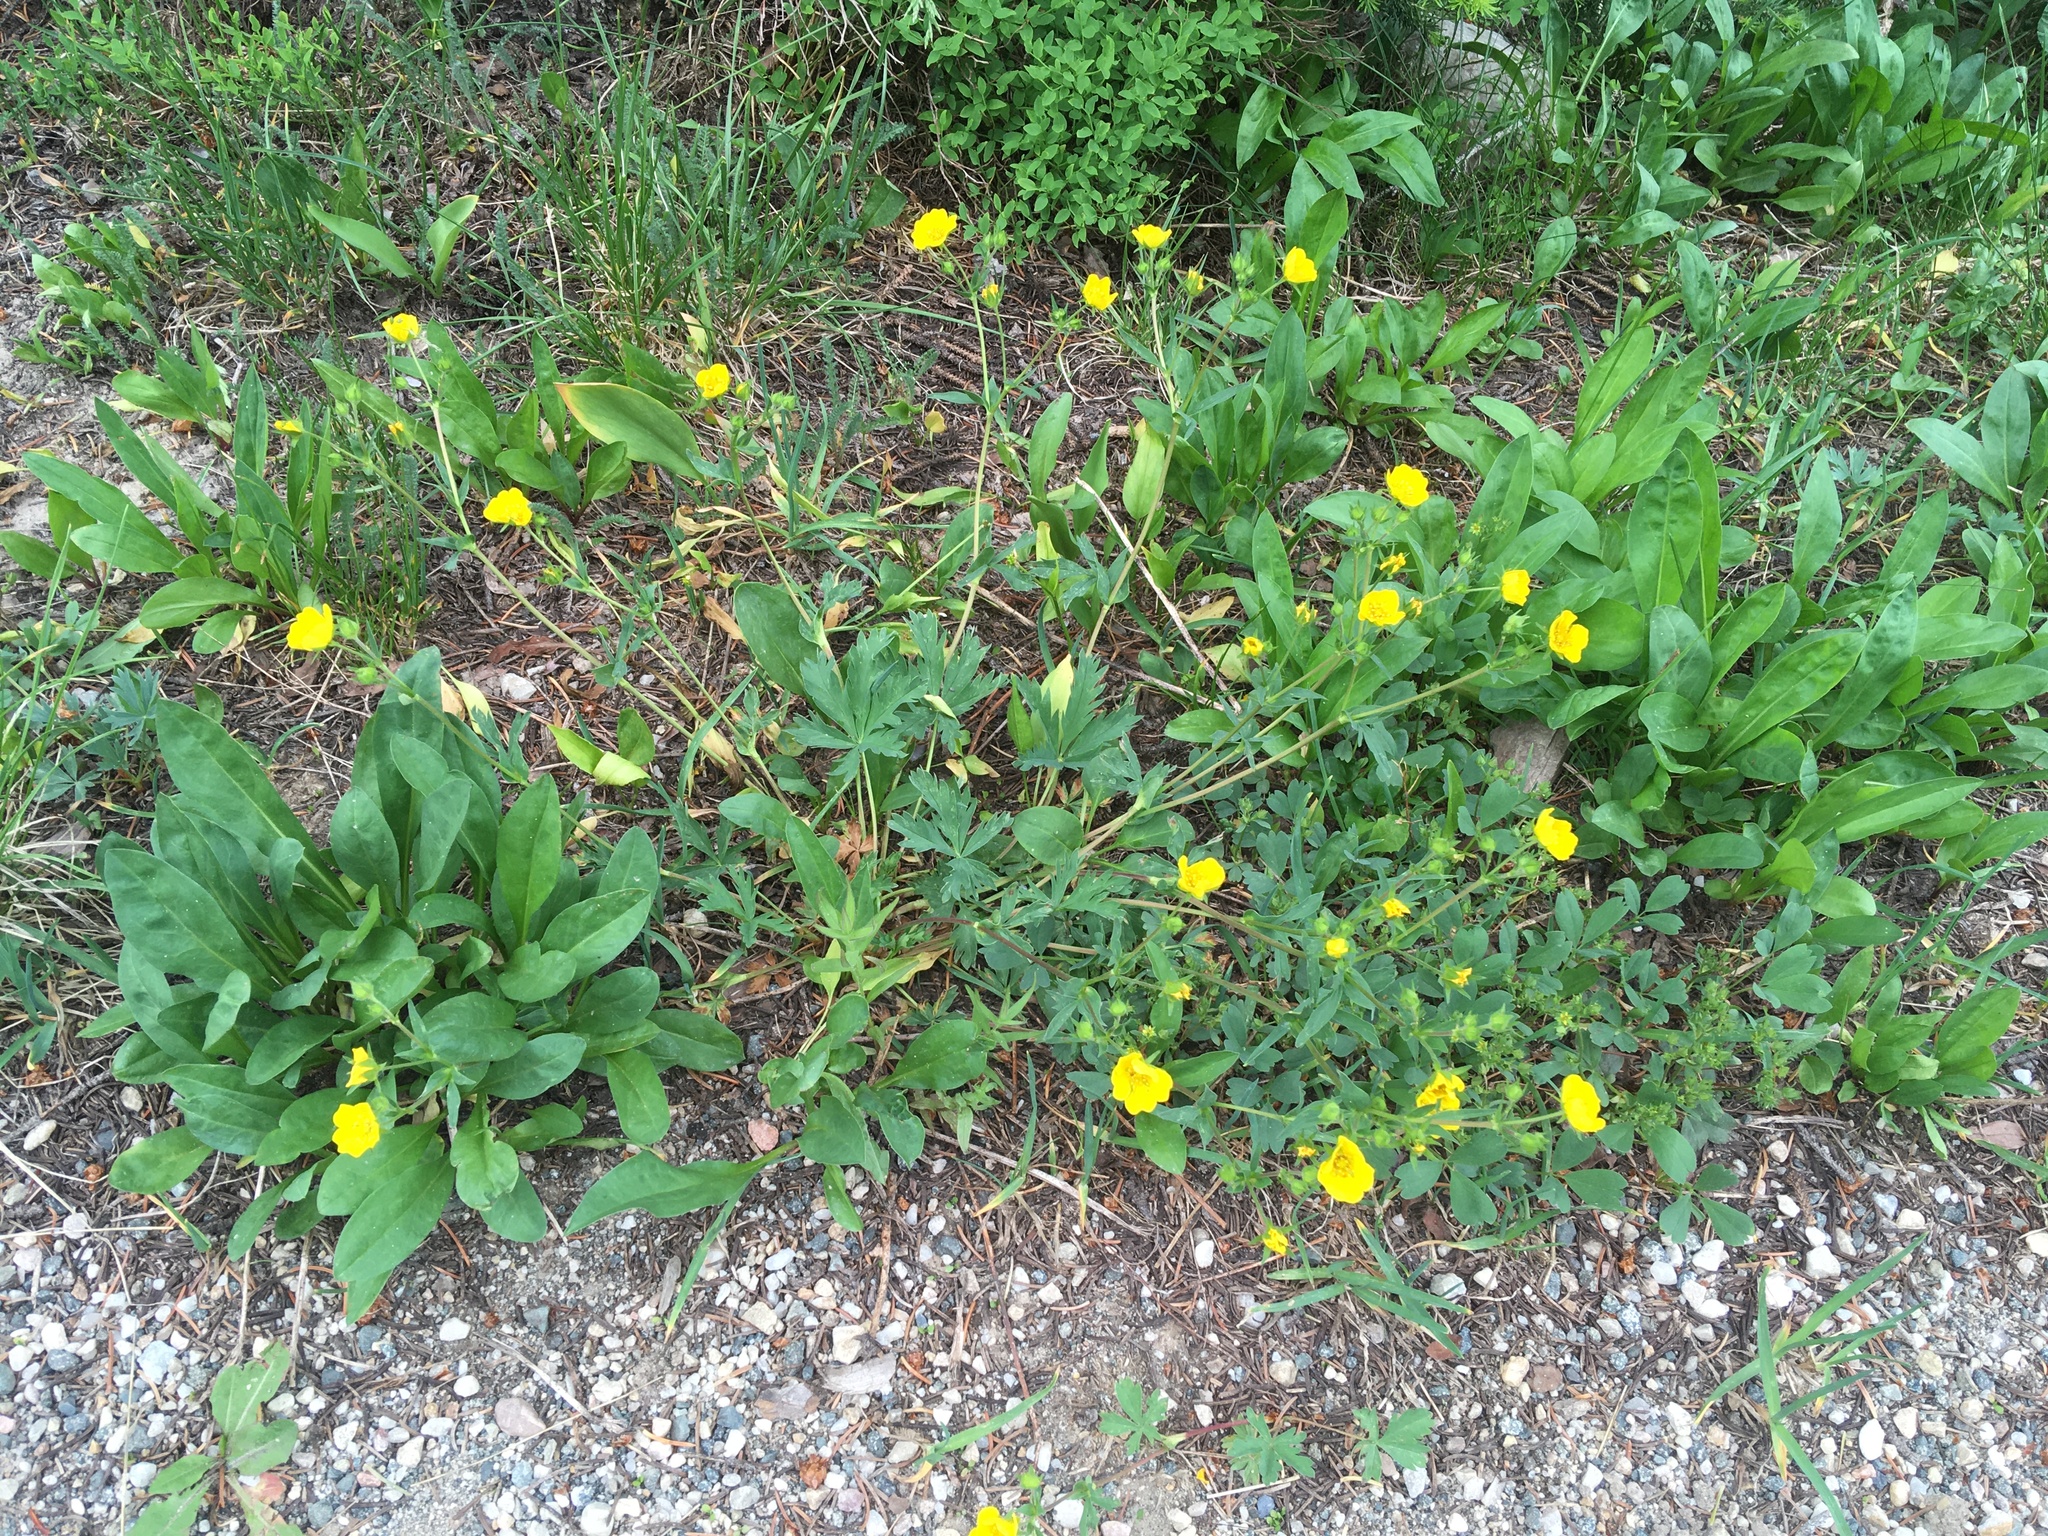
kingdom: Plantae
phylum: Tracheophyta
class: Magnoliopsida
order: Rosales
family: Rosaceae
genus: Potentilla
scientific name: Potentilla glaucophylla
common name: Blue-leaved cinquefoil
